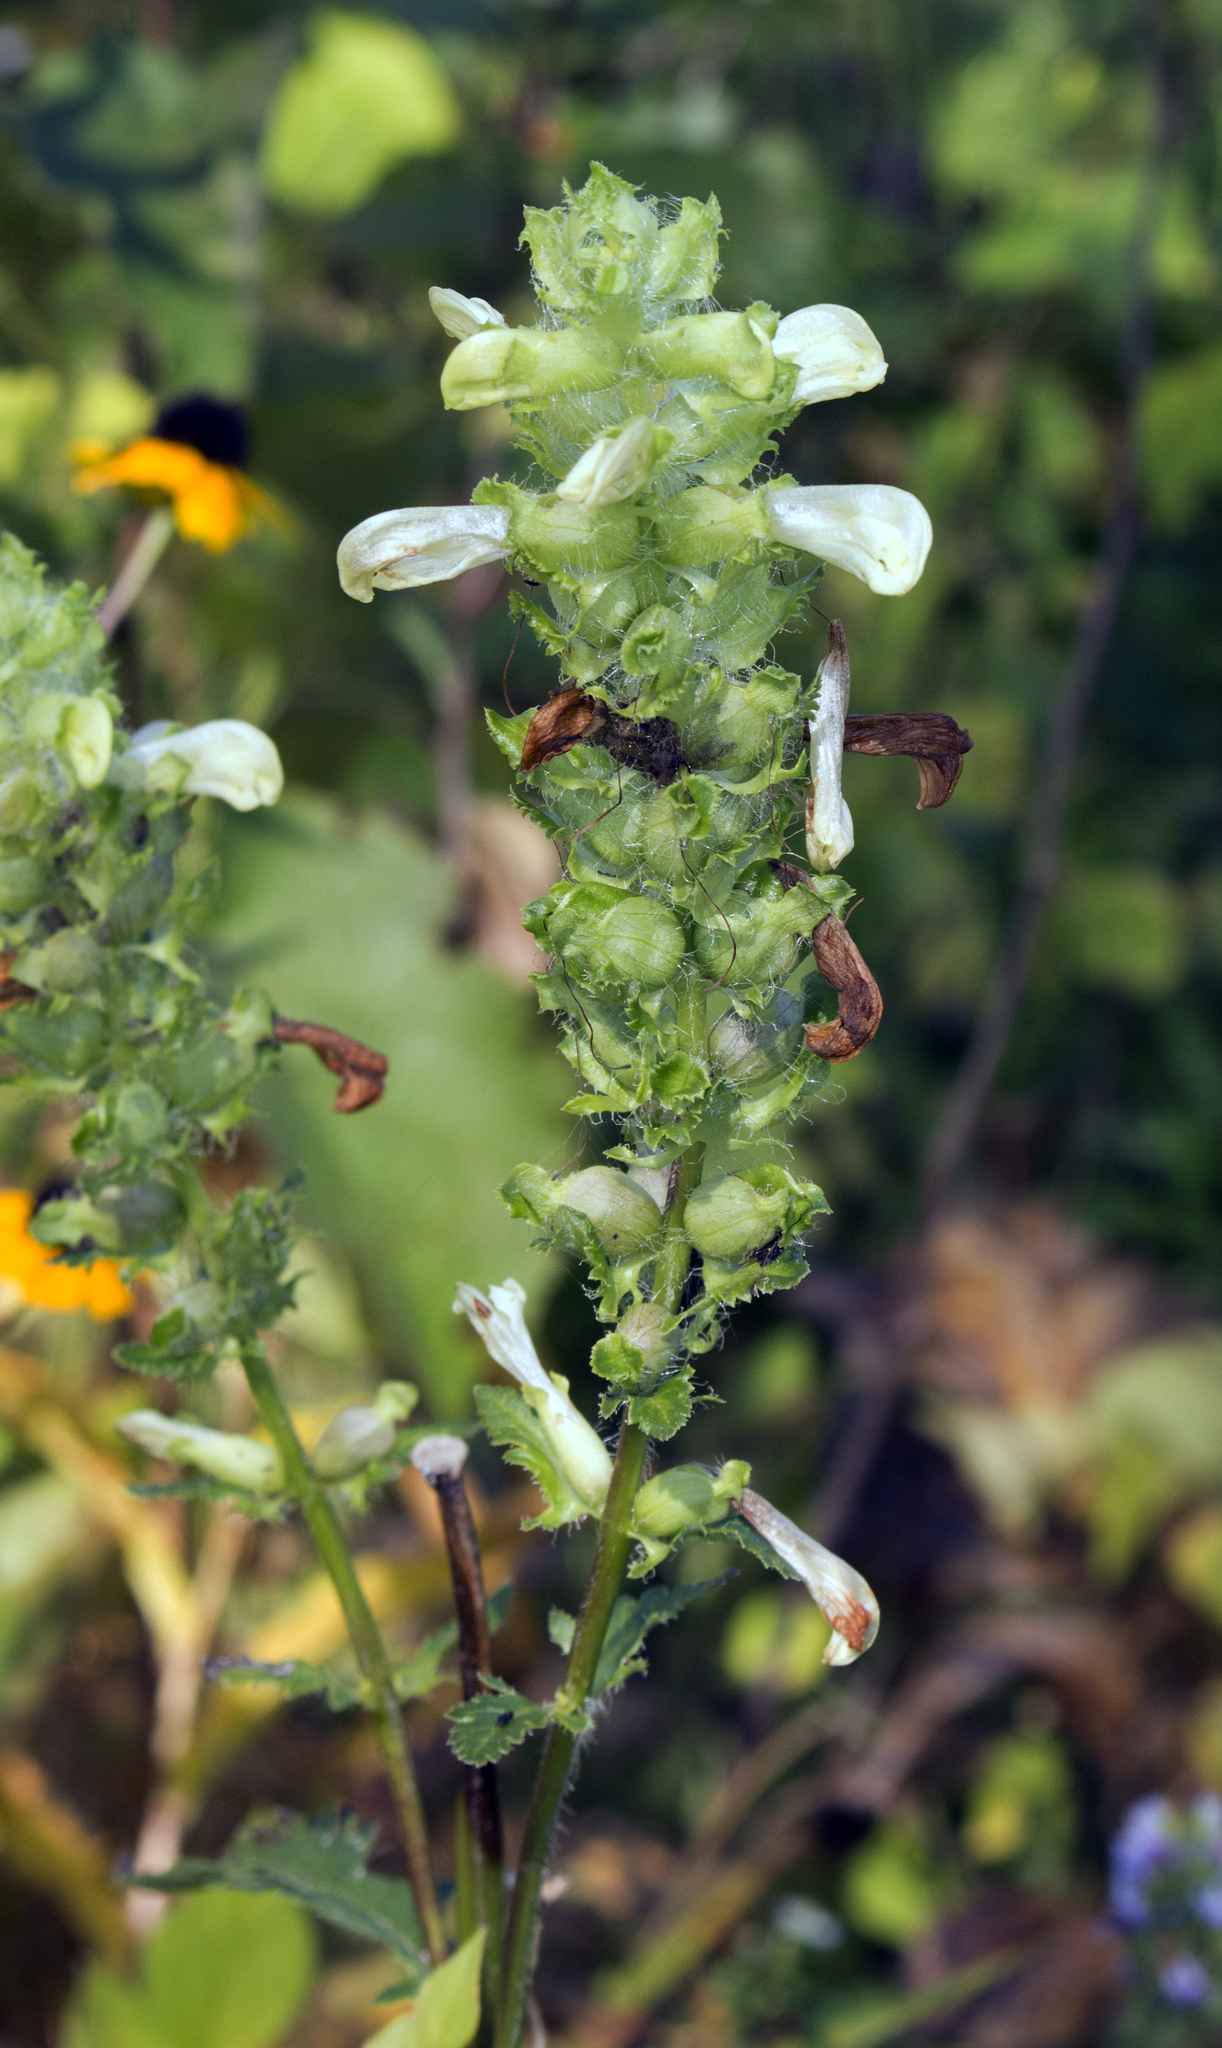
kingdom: Plantae
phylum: Tracheophyta
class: Magnoliopsida
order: Lamiales
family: Orobanchaceae
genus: Pedicularis
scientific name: Pedicularis lanceolata
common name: Swamp lousewort
